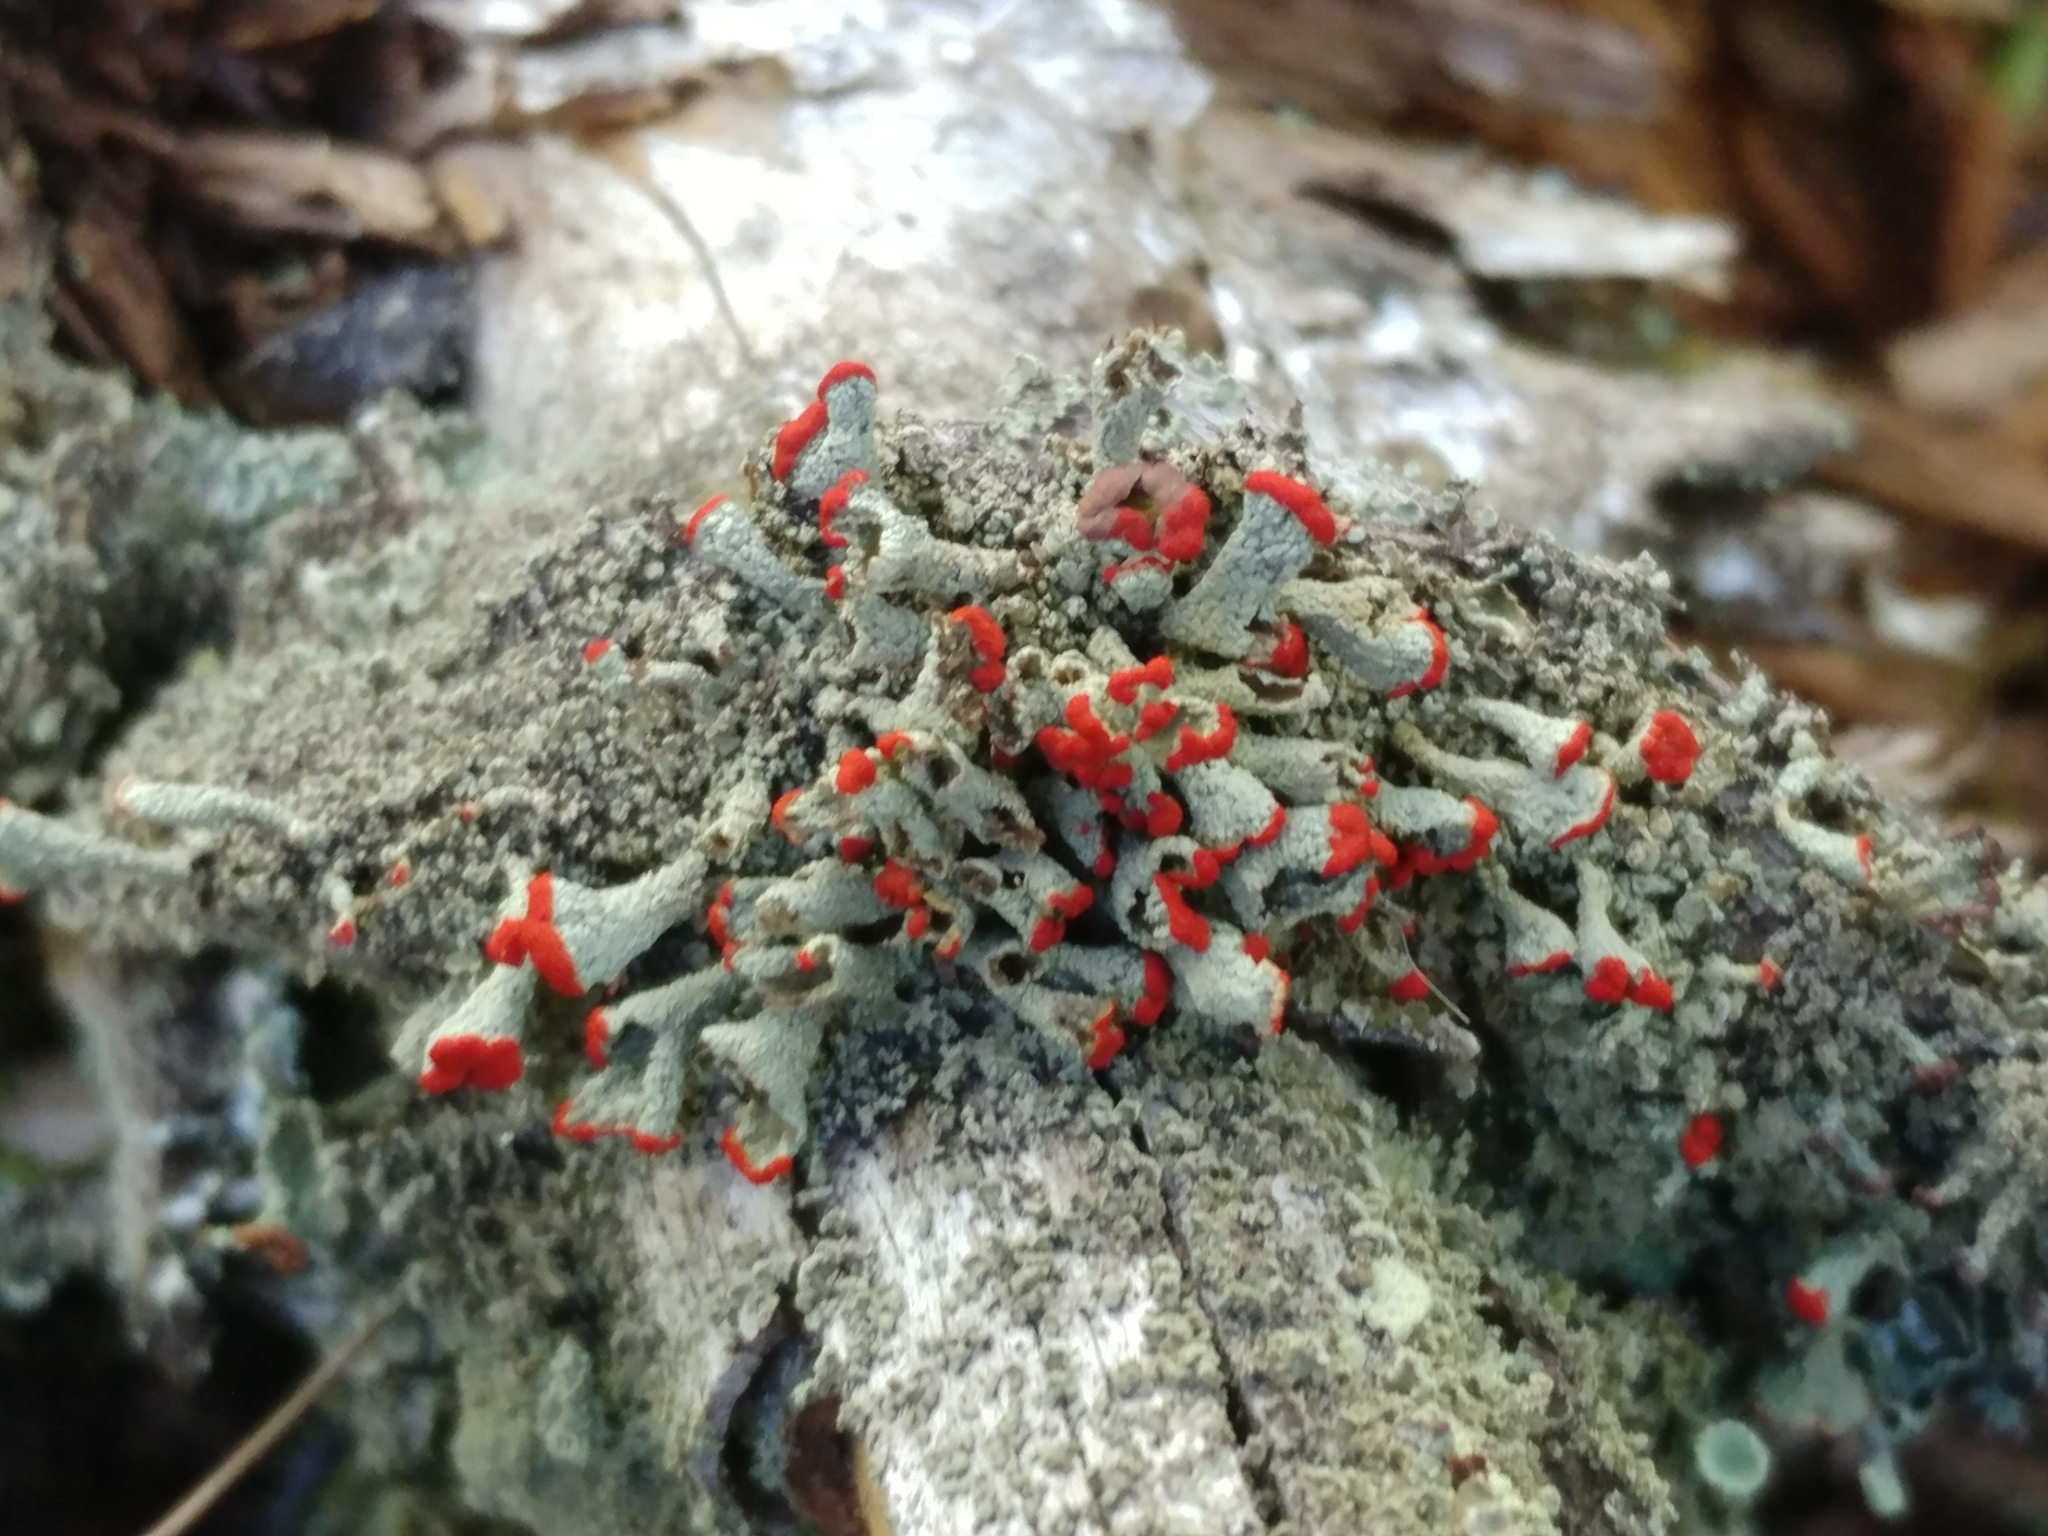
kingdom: Fungi
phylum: Ascomycota
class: Lecanoromycetes
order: Lecanorales
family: Cladoniaceae
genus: Cladonia
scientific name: Cladonia pleurota
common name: Red-fruited pixie cup
